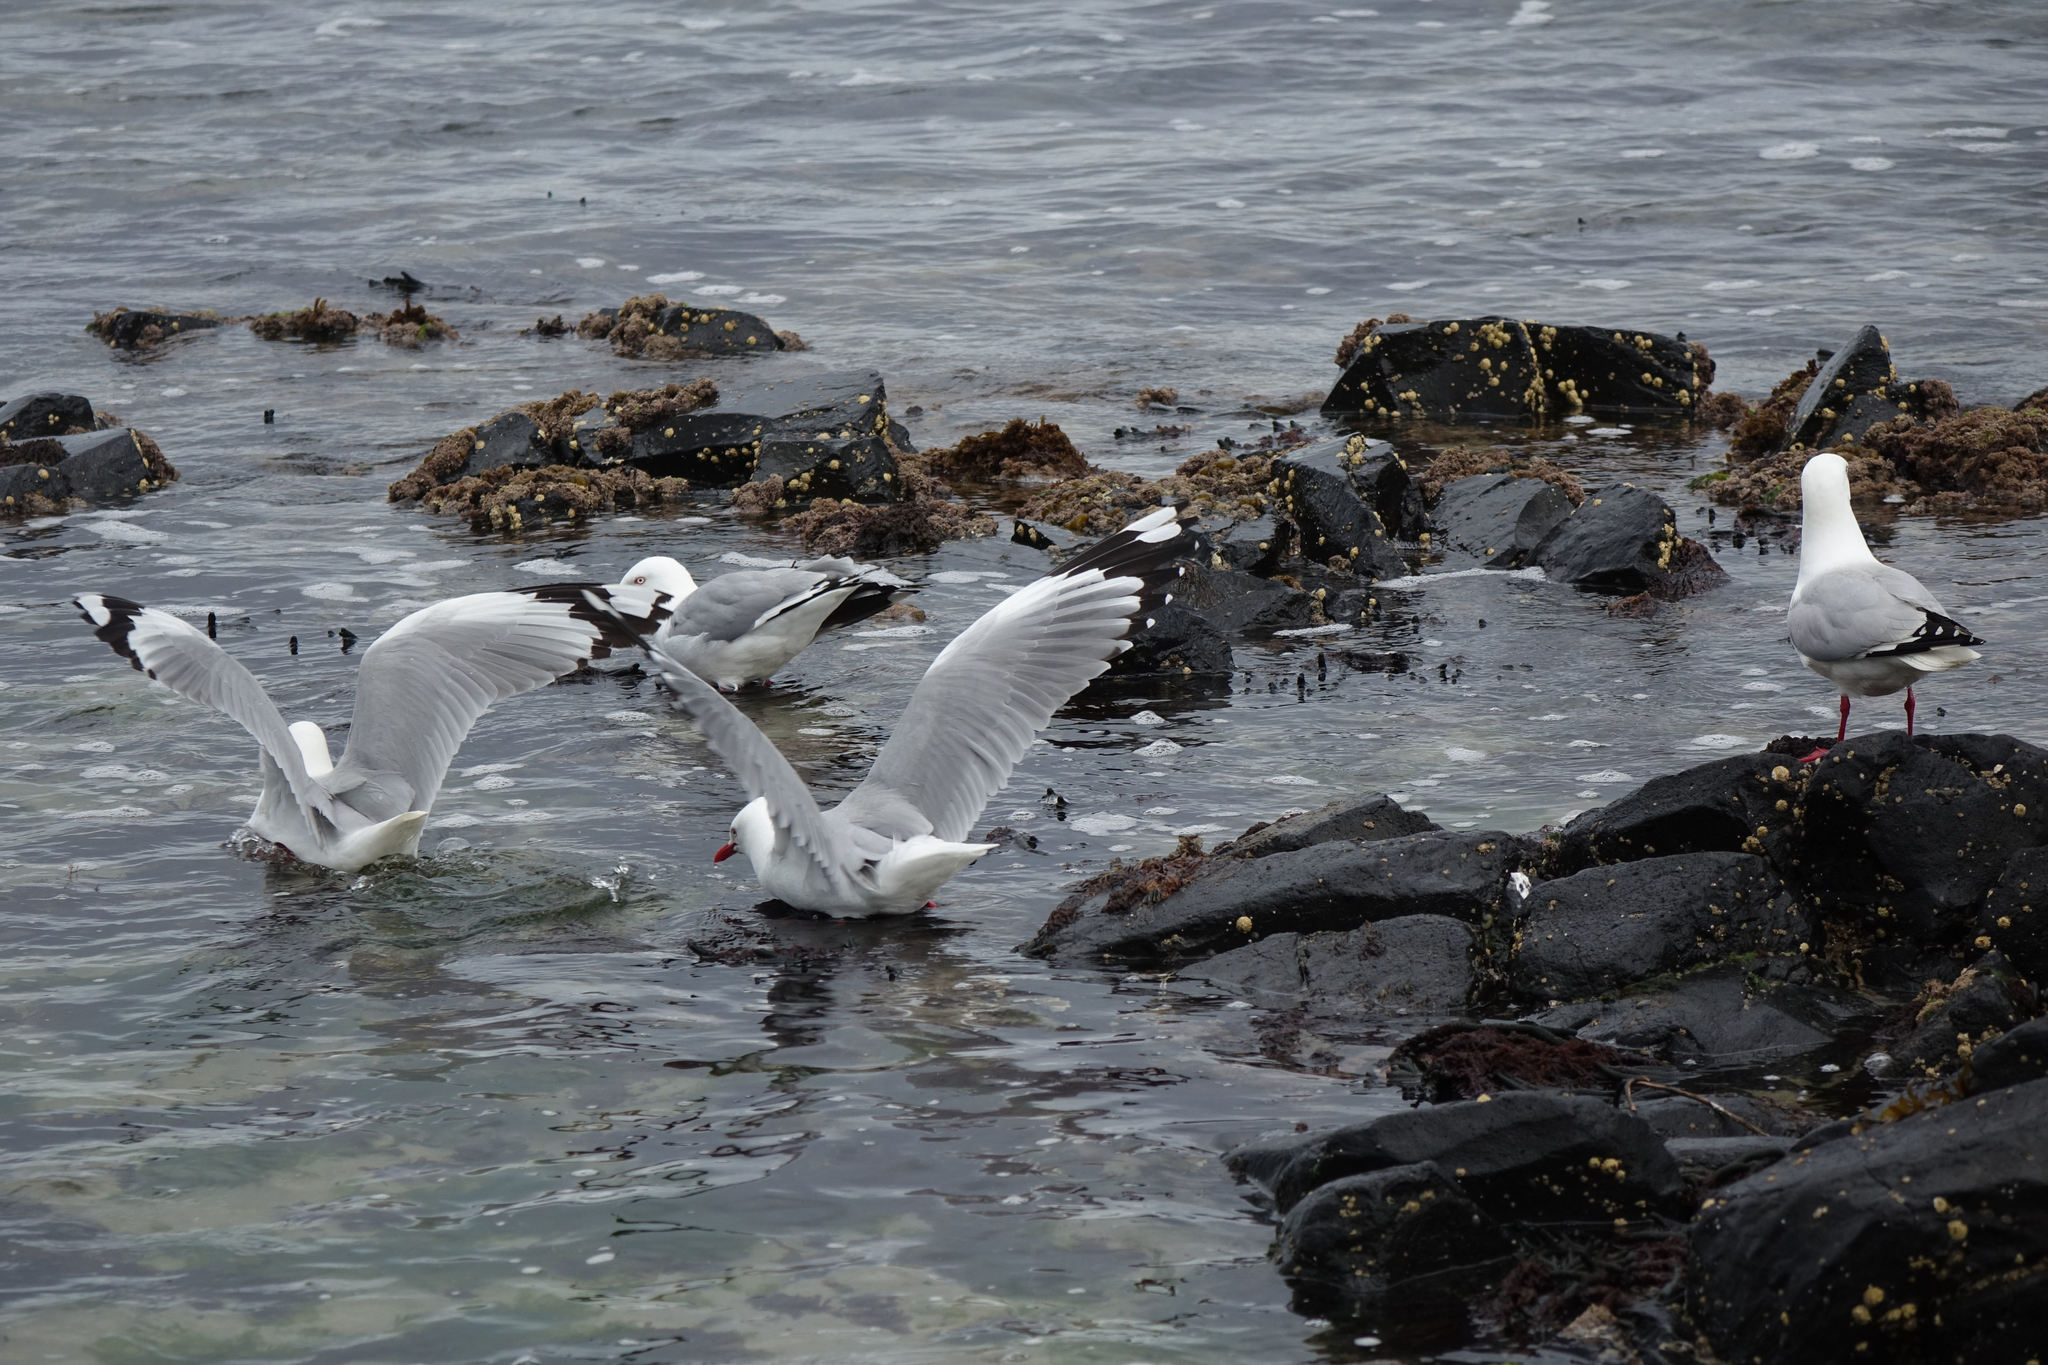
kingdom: Animalia
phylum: Chordata
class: Aves
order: Charadriiformes
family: Laridae
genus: Chroicocephalus
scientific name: Chroicocephalus novaehollandiae
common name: Silver gull
